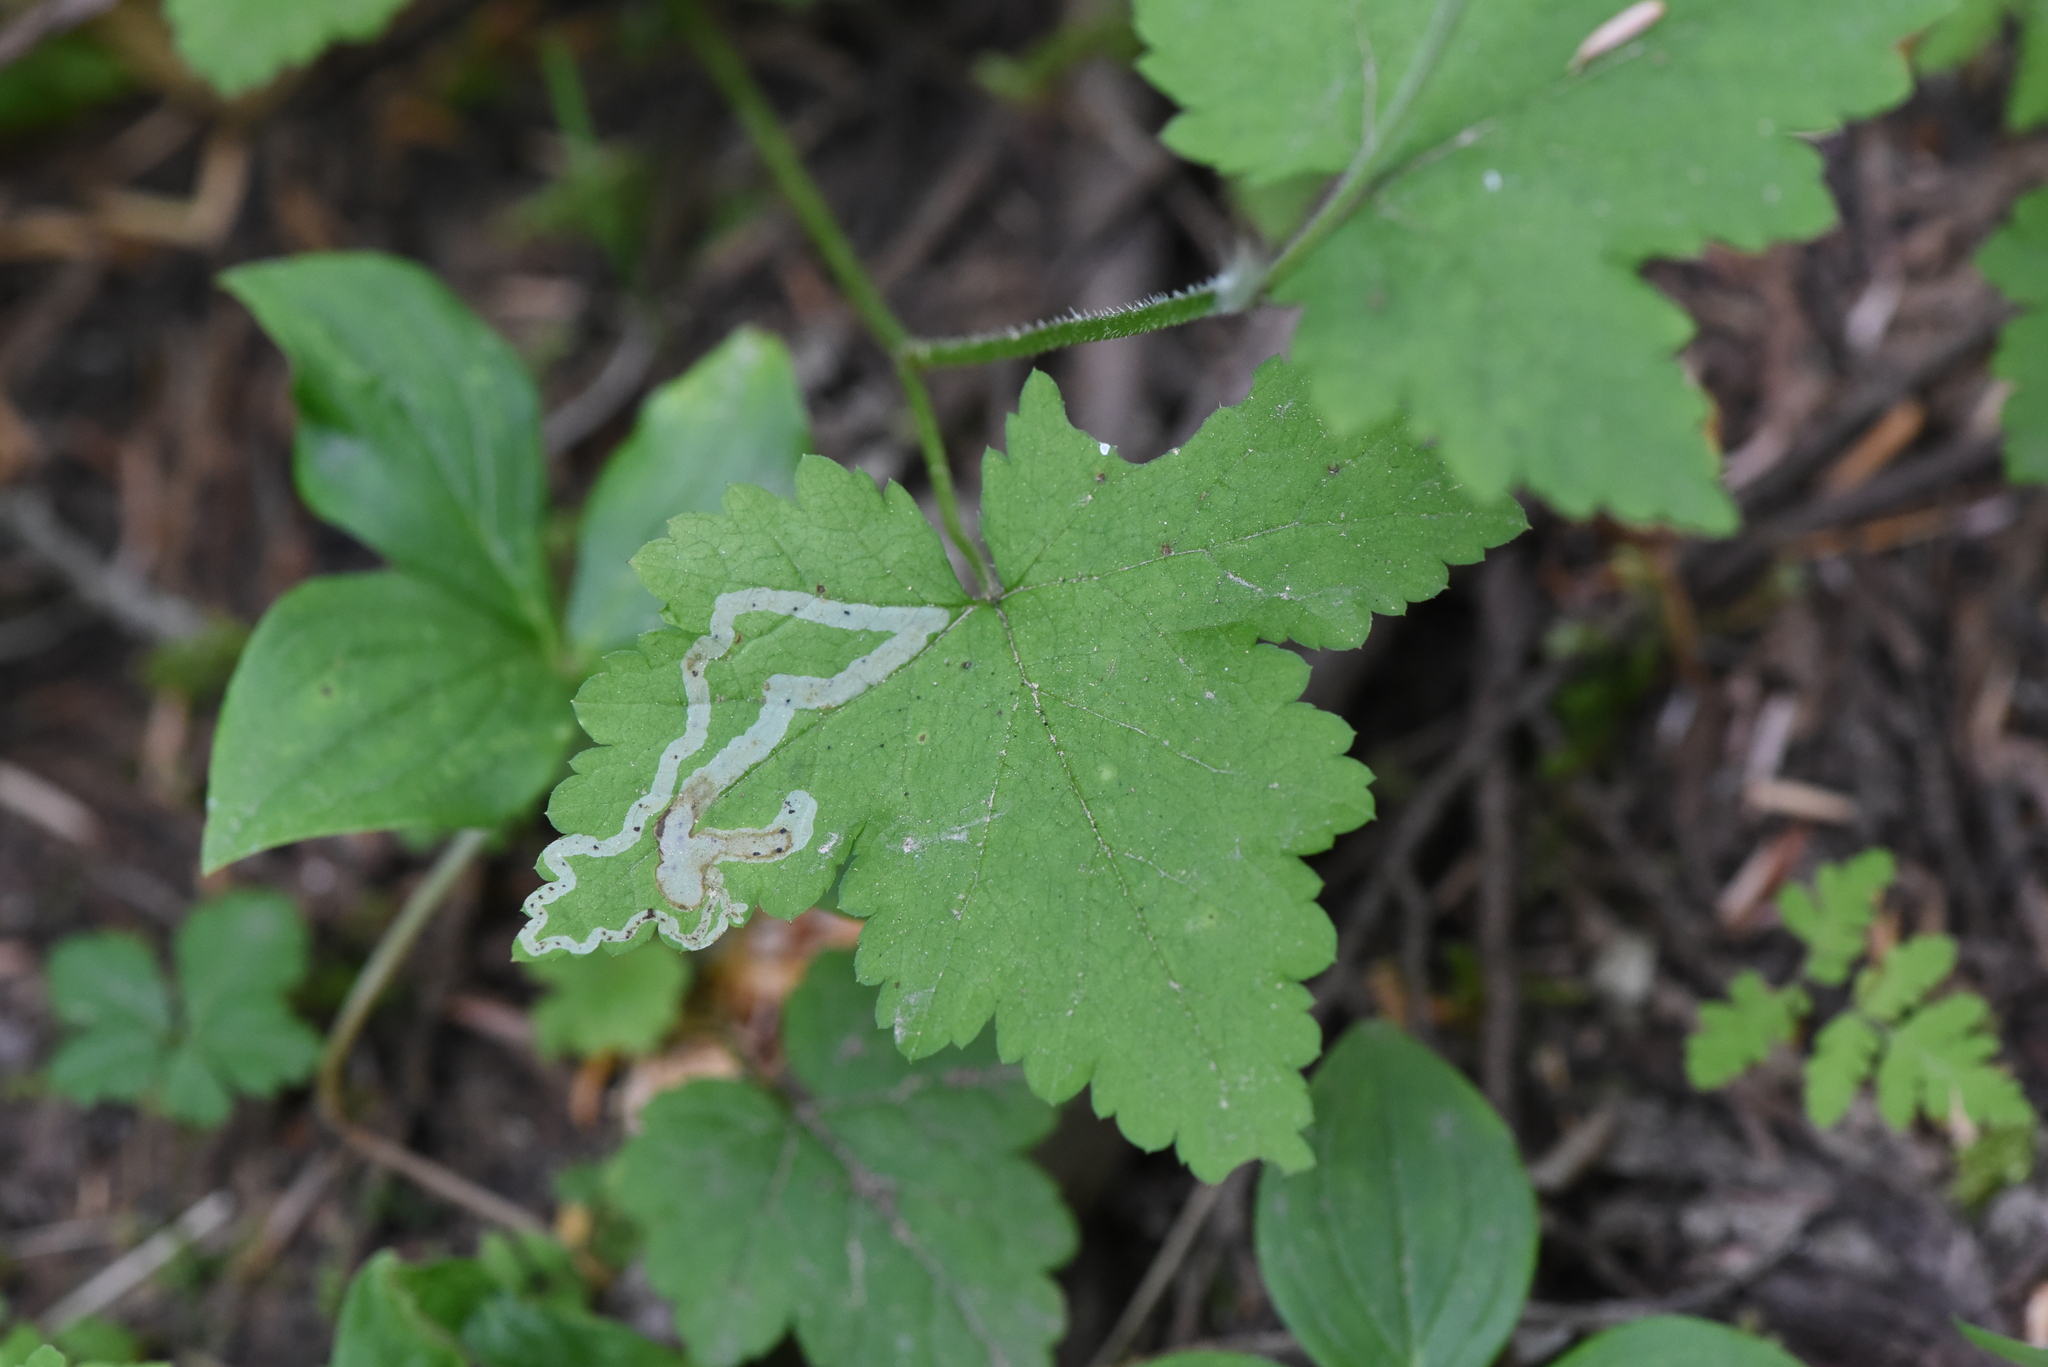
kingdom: Plantae
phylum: Tracheophyta
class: Magnoliopsida
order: Saxifragales
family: Saxifragaceae
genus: Tiarella
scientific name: Tiarella trifoliata
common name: Sugar-scoop
